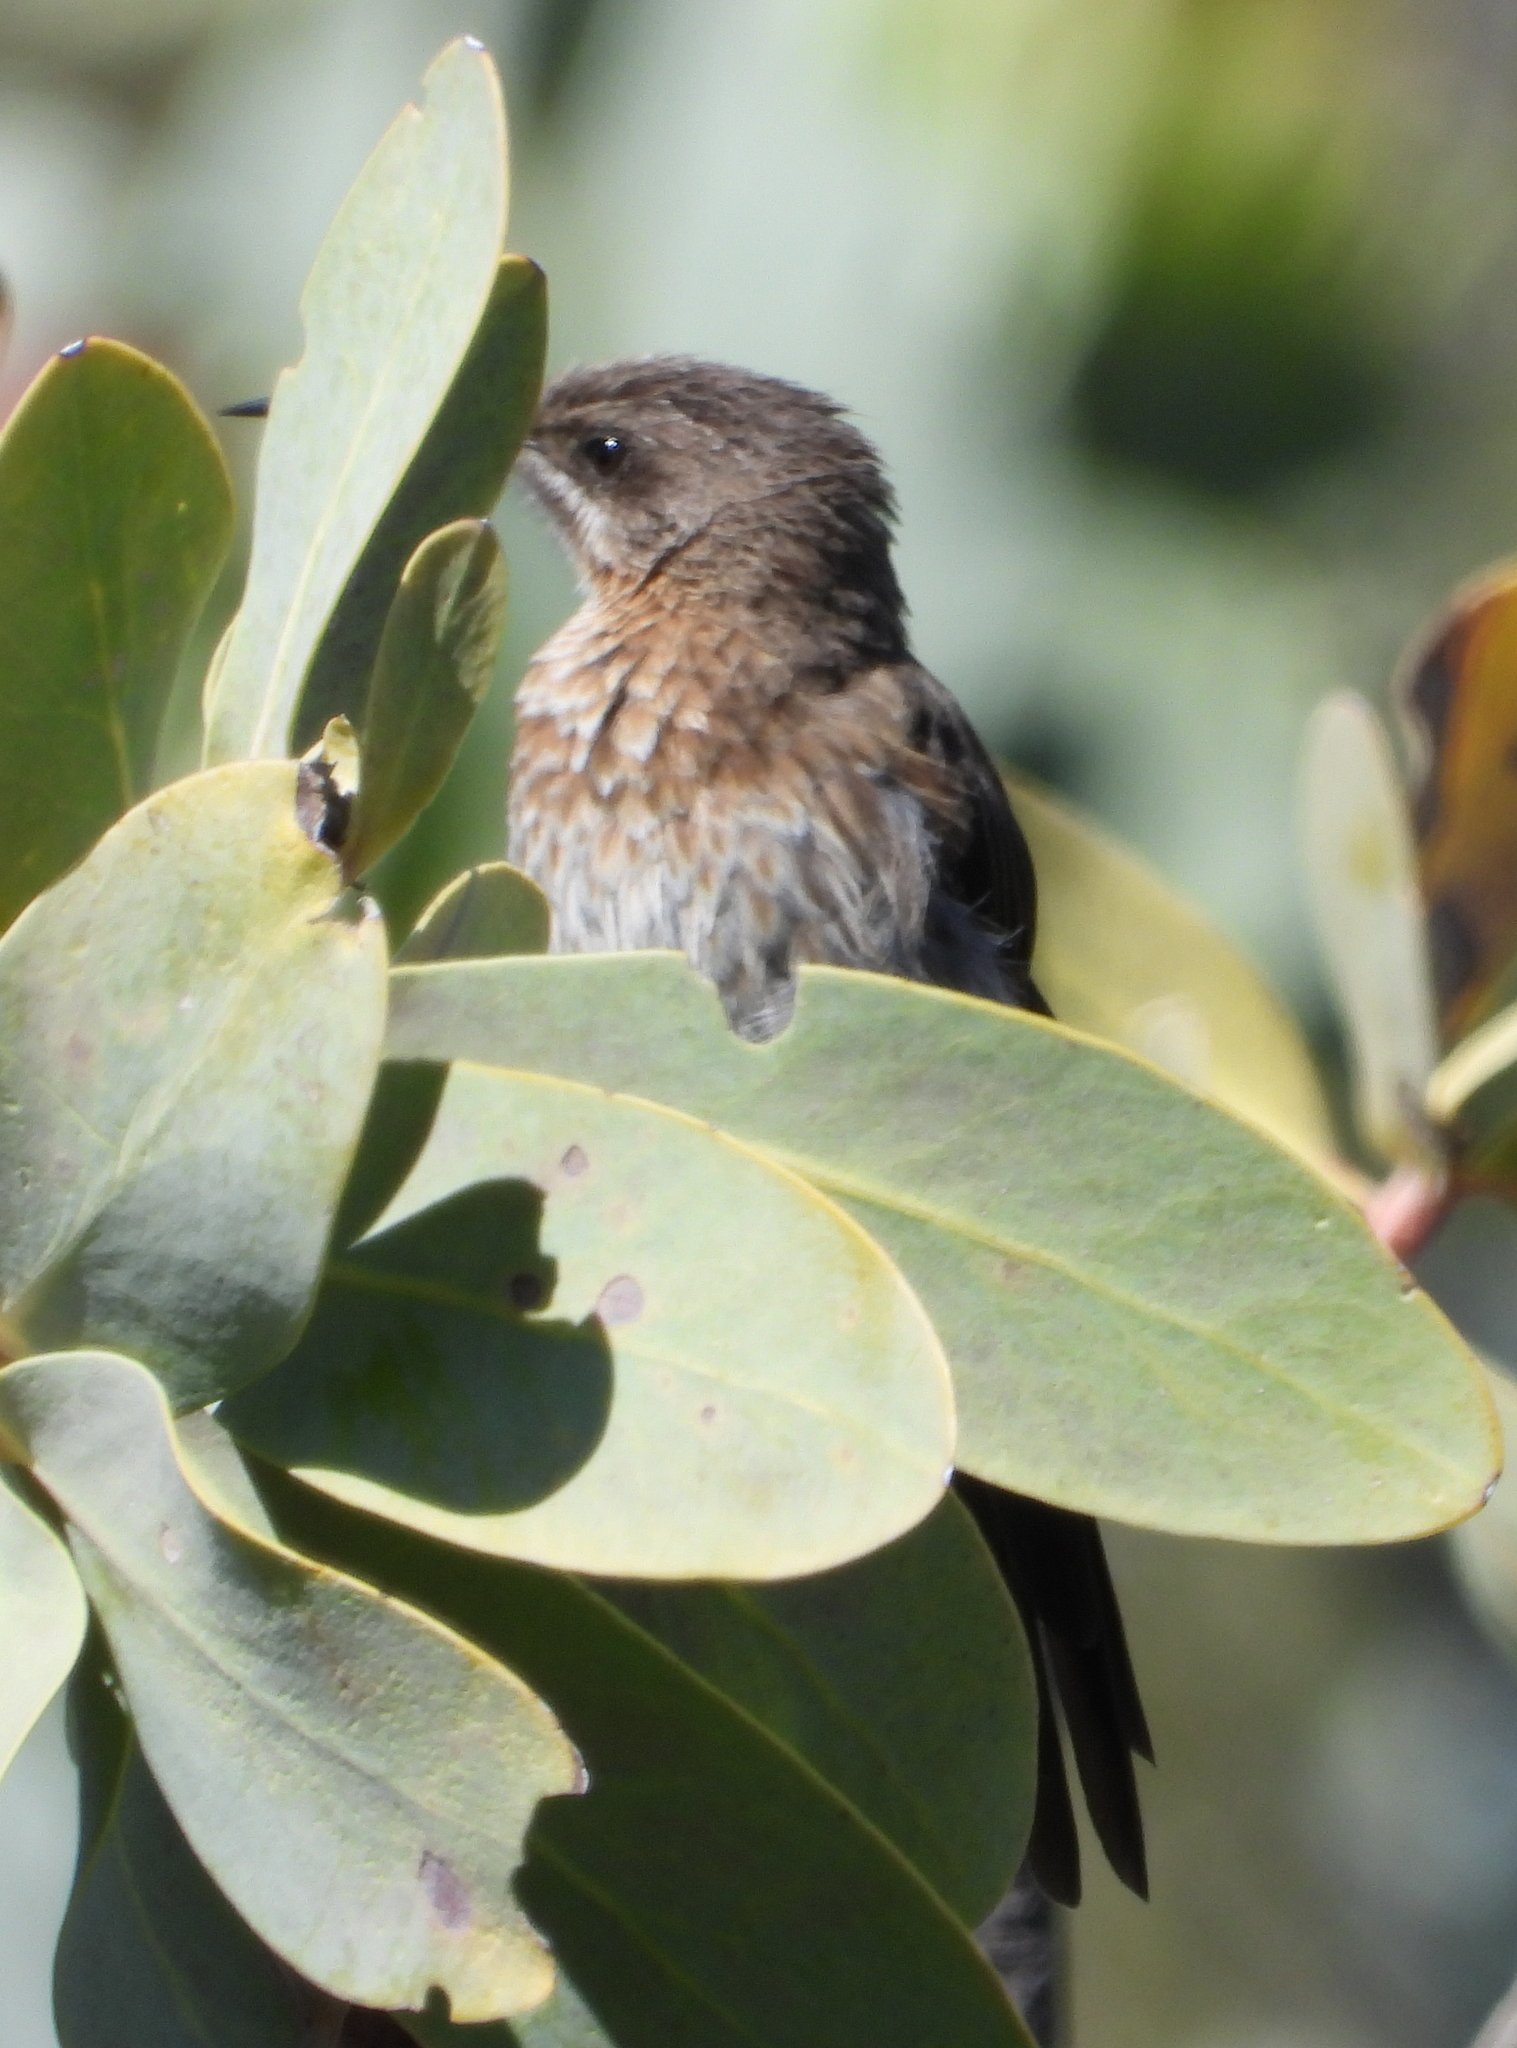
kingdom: Animalia
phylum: Chordata
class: Aves
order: Passeriformes
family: Promeropidae
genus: Promerops
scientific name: Promerops cafer
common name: Cape sugarbird
